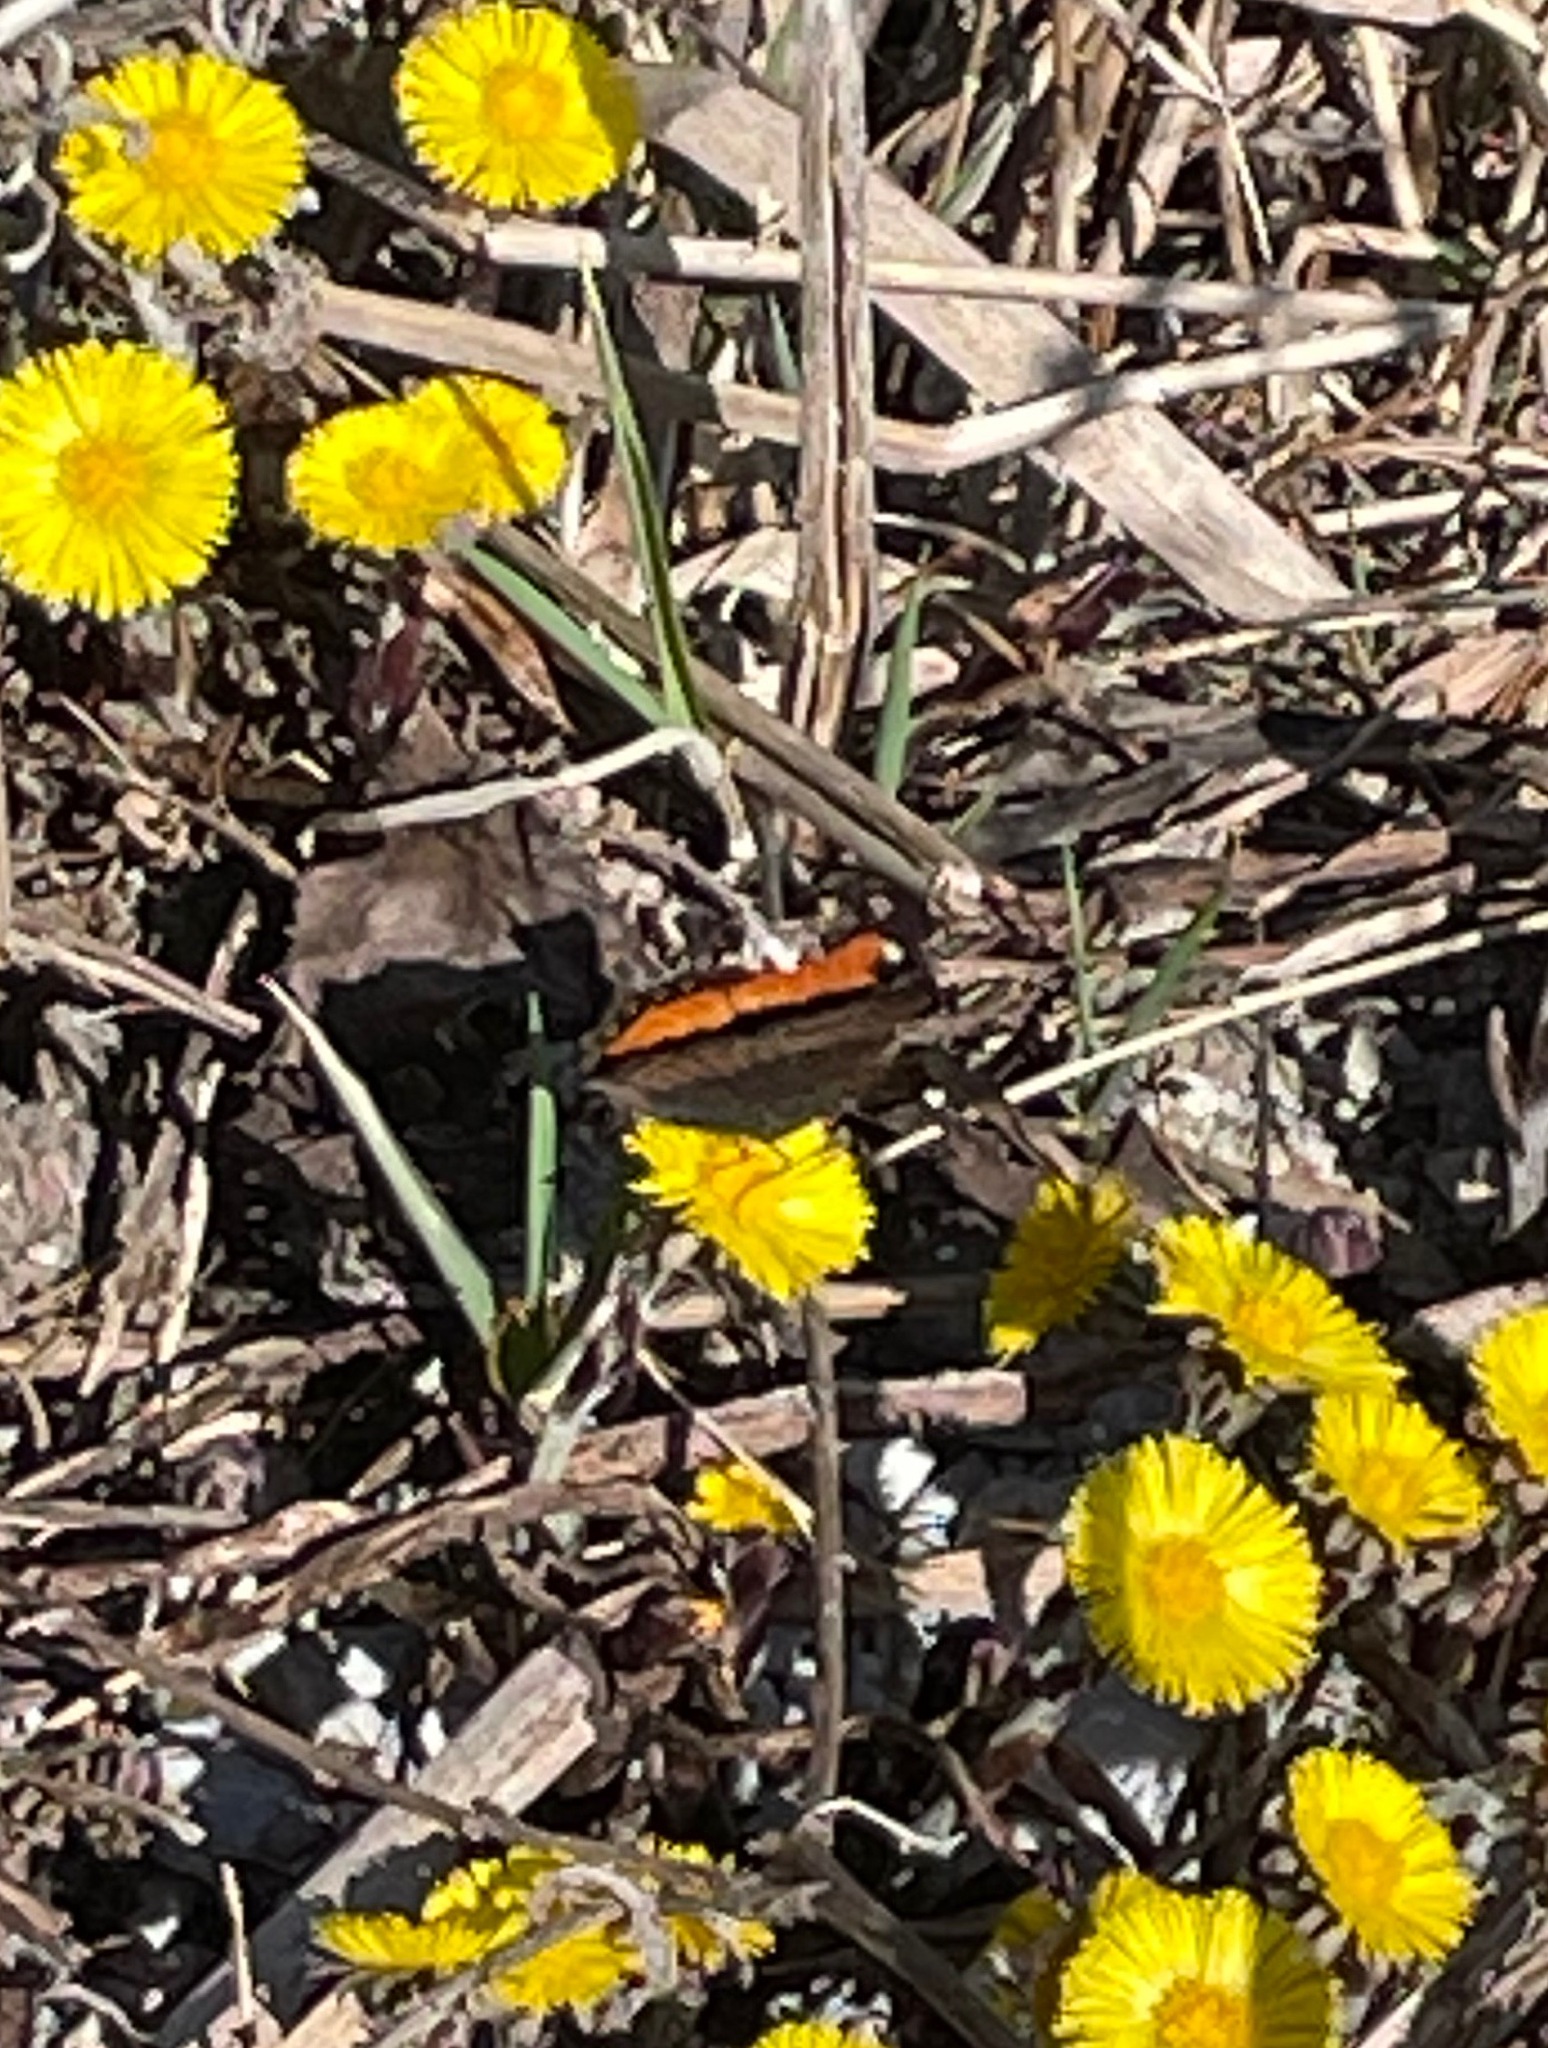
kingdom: Animalia
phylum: Arthropoda
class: Insecta
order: Lepidoptera
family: Nymphalidae
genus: Aglais
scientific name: Aglais milberti
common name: Milbert's tortoiseshell
